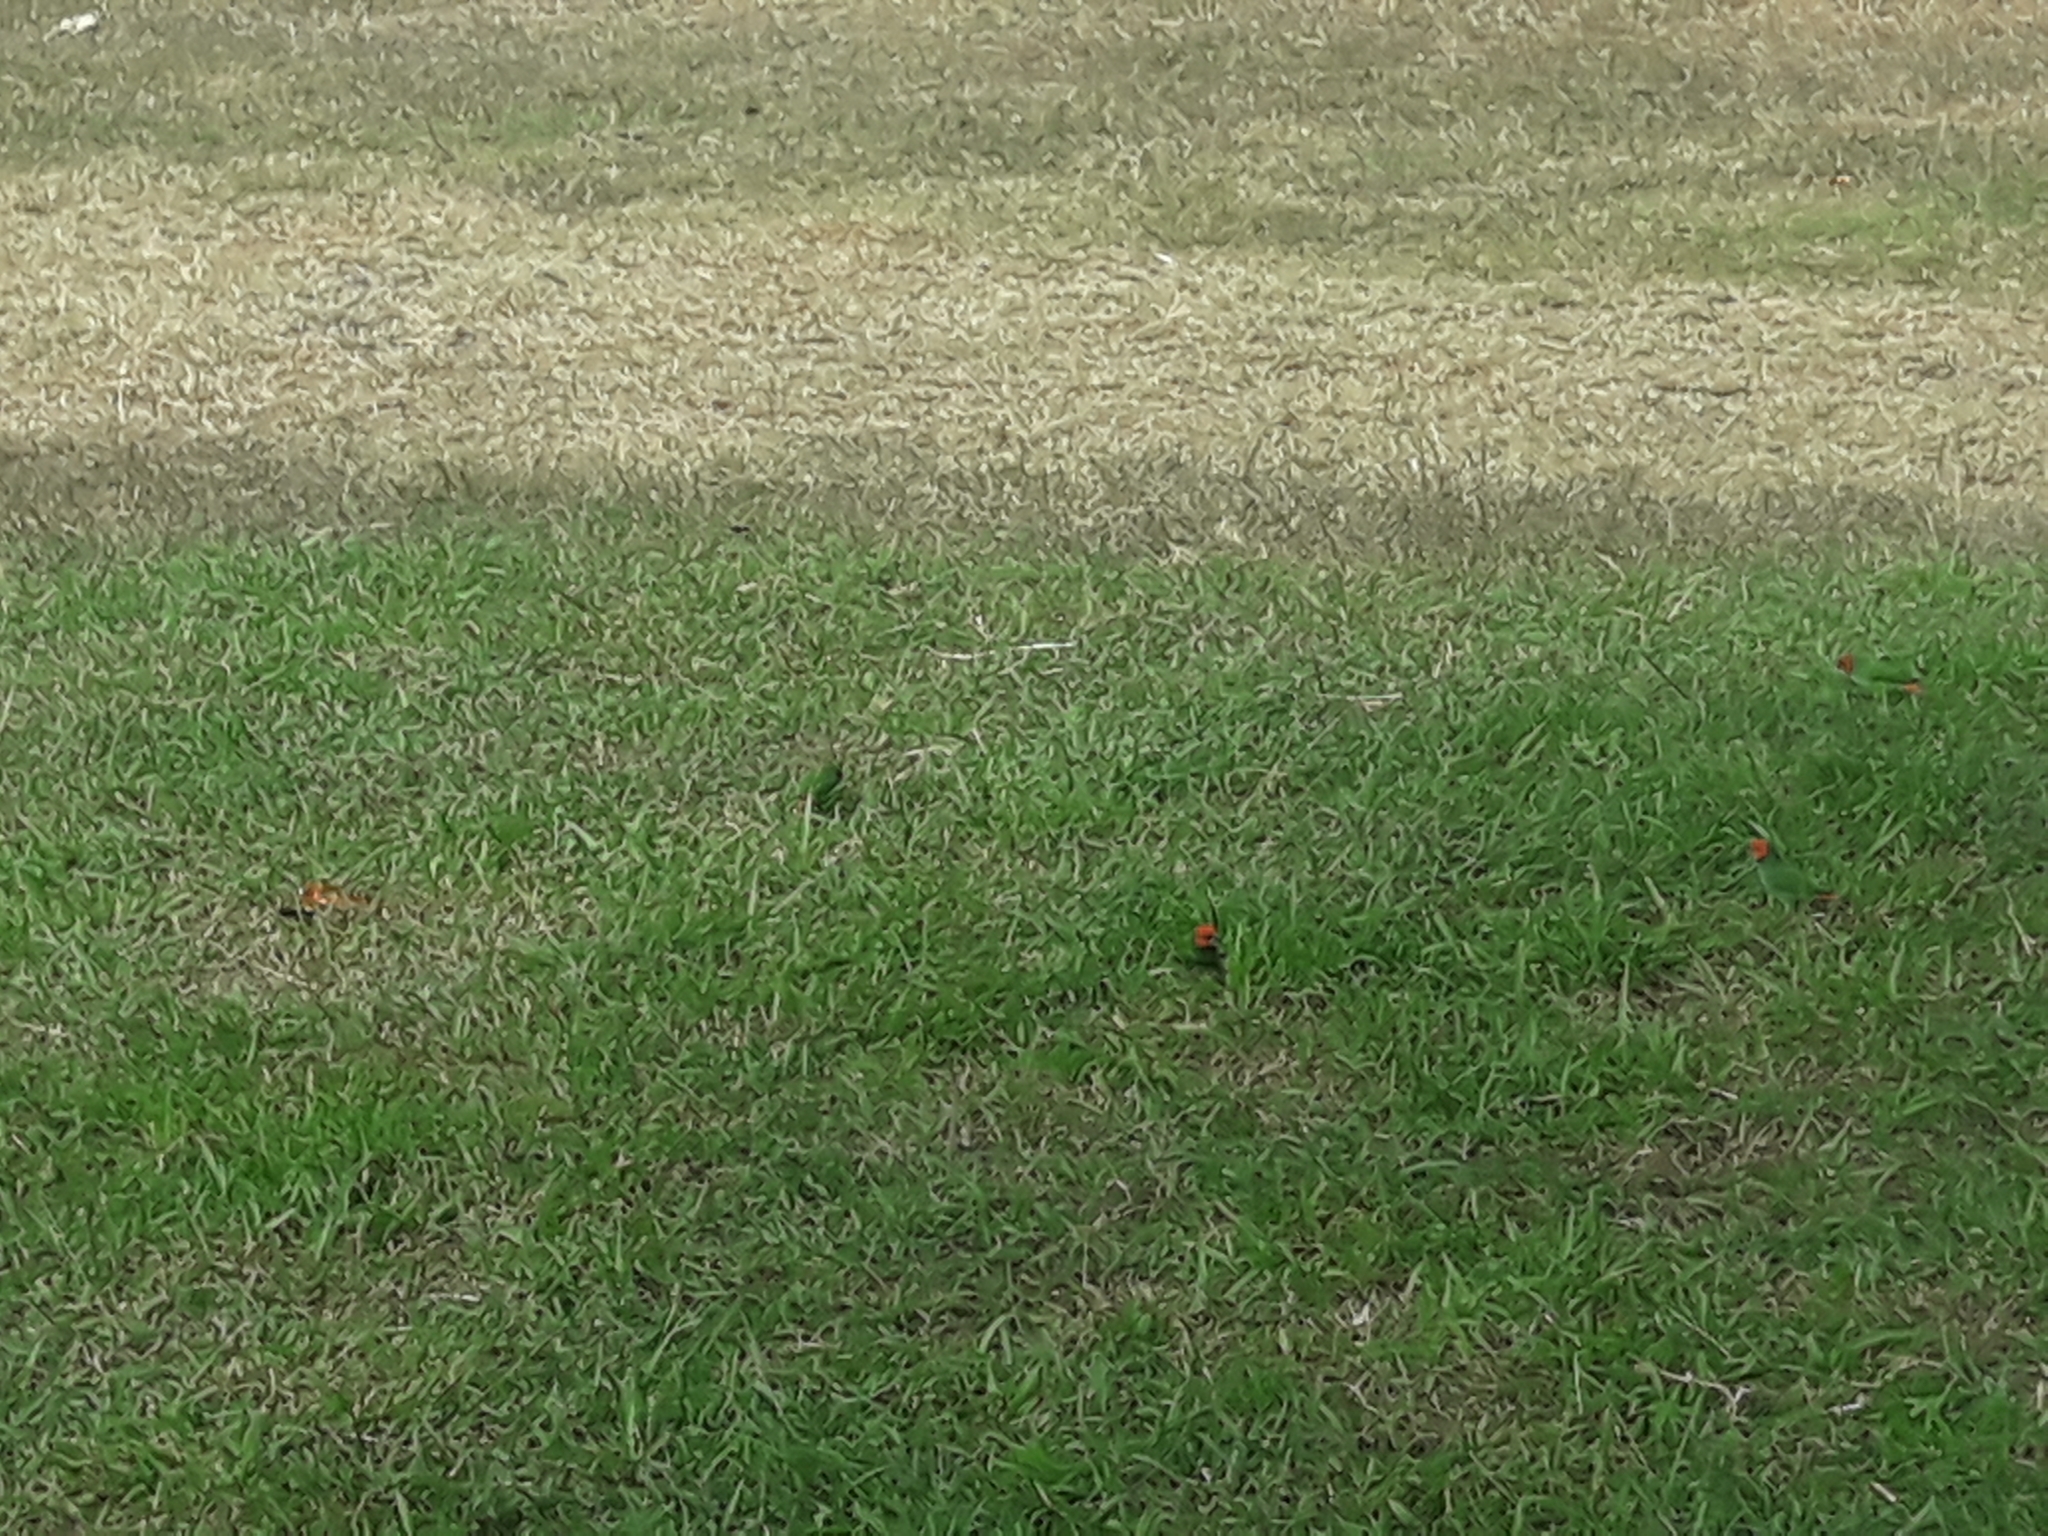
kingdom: Animalia
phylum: Chordata
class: Aves
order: Passeriformes
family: Estrildidae
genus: Erythrura
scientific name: Erythrura pealii
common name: Fiji parrotfinch
